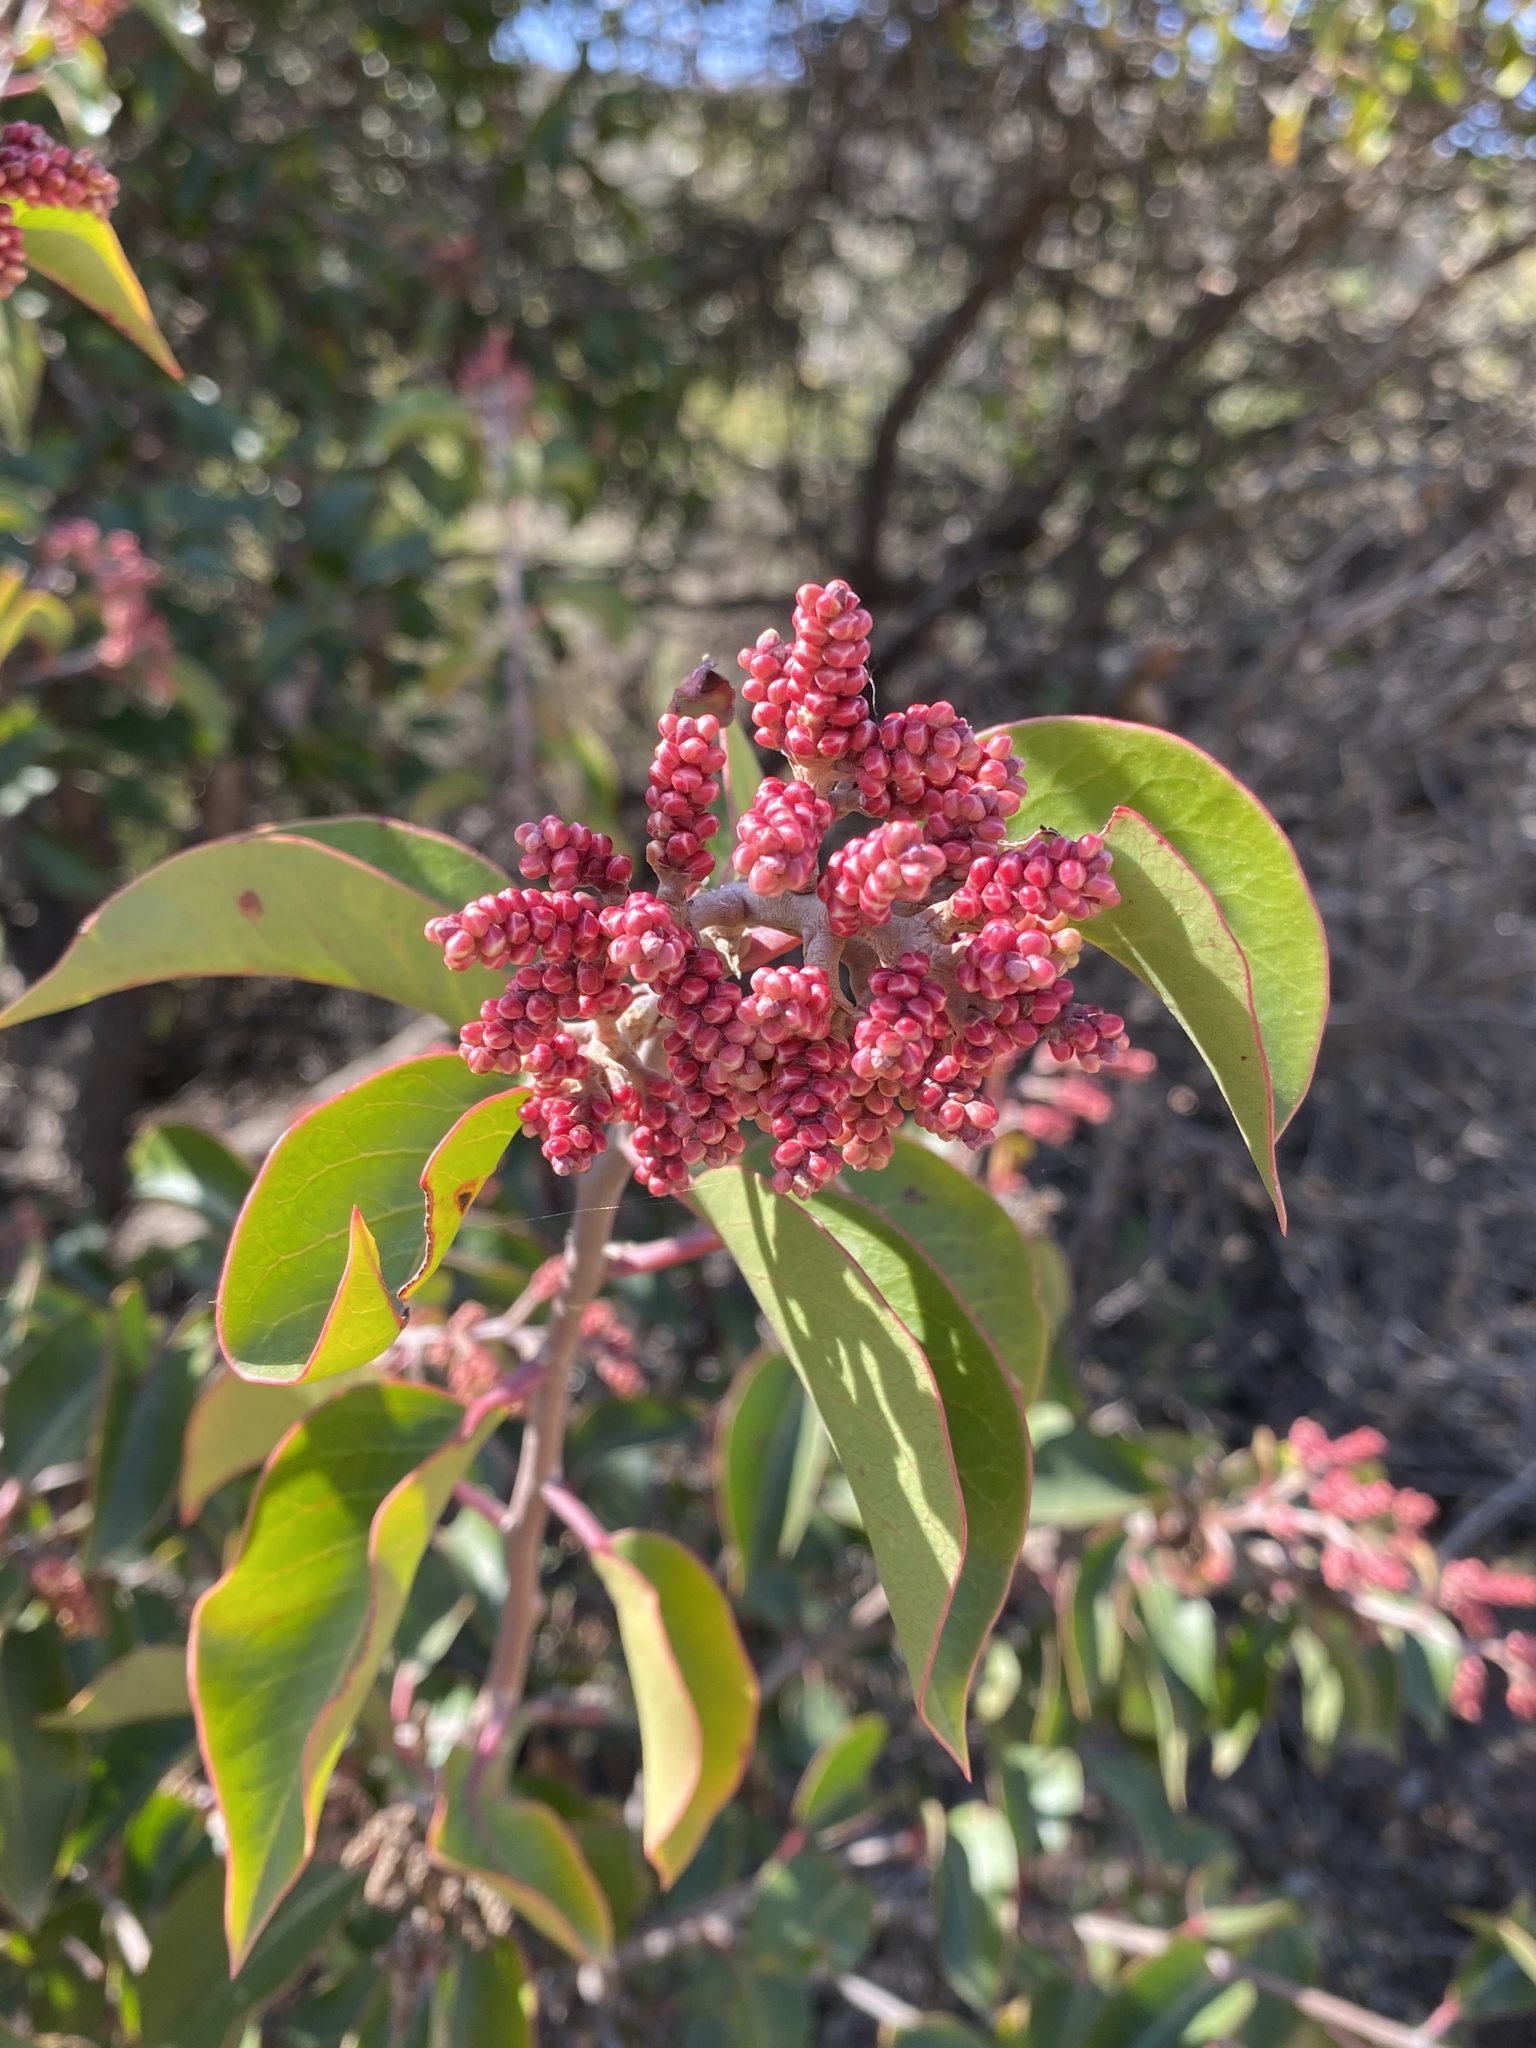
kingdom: Plantae
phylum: Tracheophyta
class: Magnoliopsida
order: Sapindales
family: Anacardiaceae
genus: Rhus
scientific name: Rhus ovata
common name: Sugar sumac
